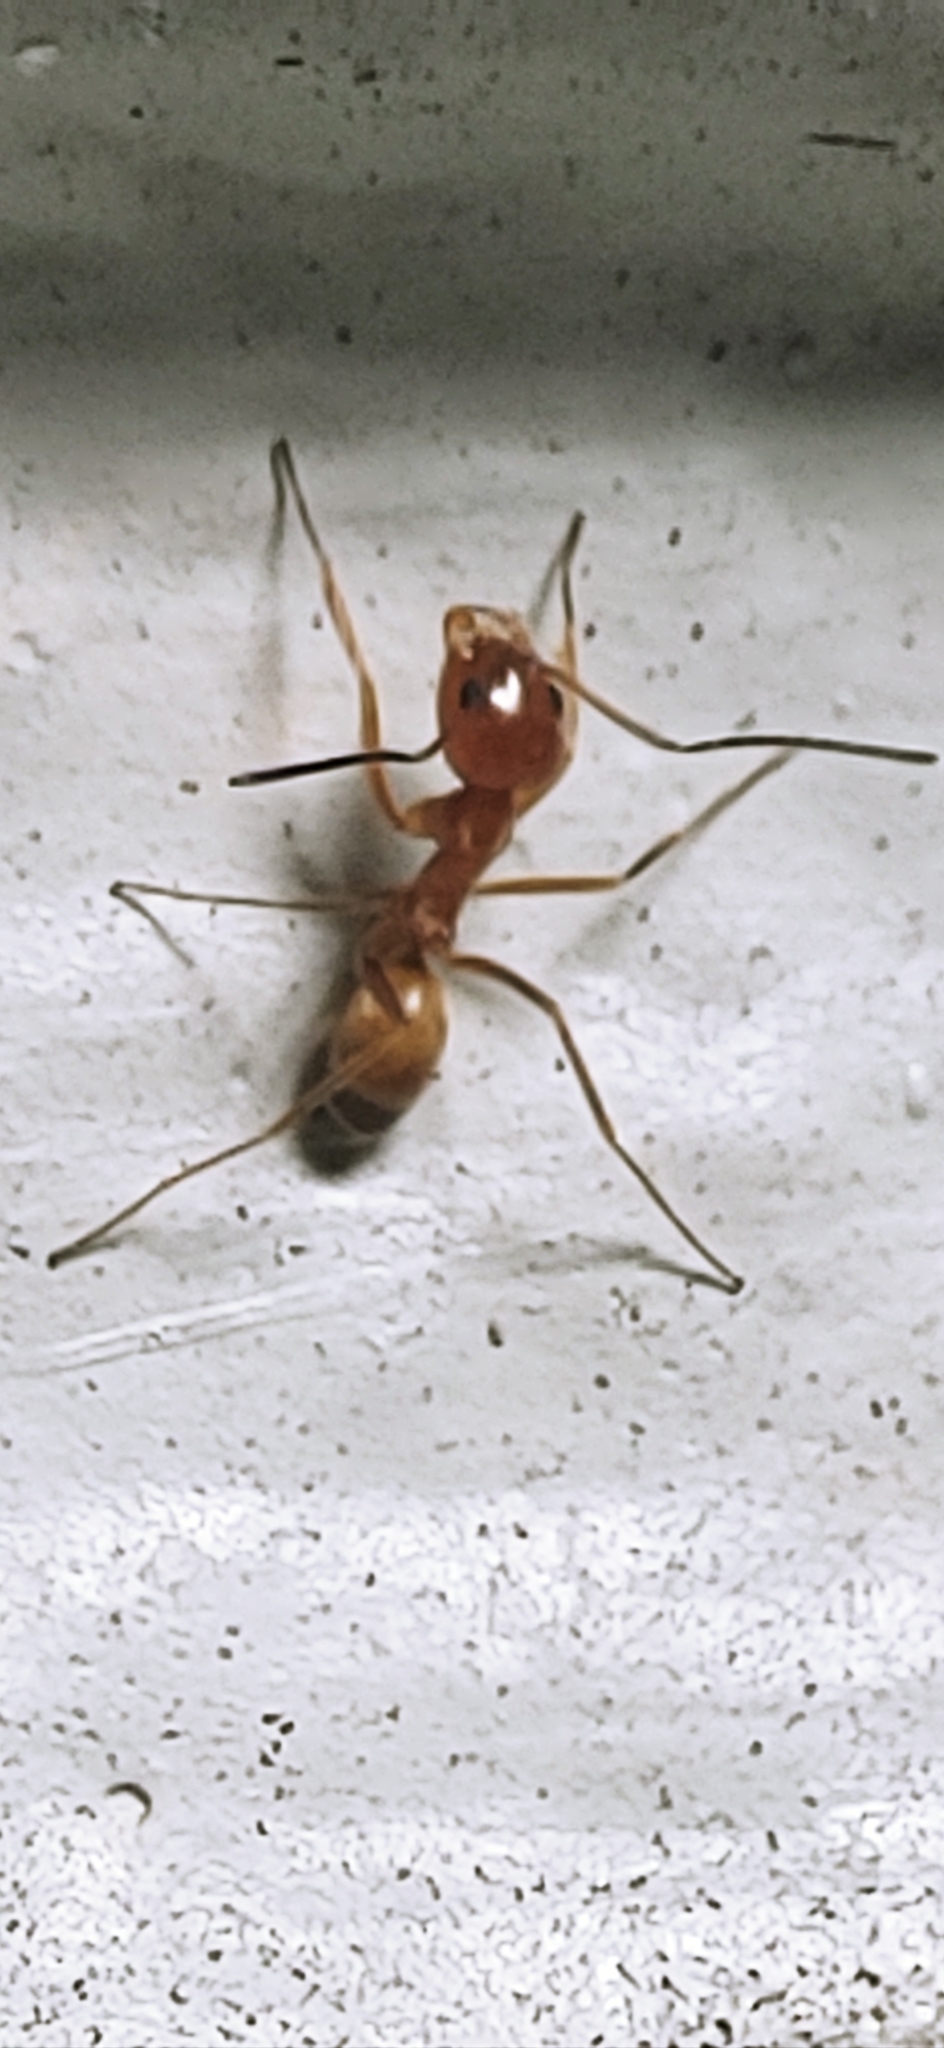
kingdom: Animalia
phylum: Arthropoda
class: Insecta
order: Hymenoptera
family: Formicidae
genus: Dorymyrmex
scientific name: Dorymyrmex bureni
